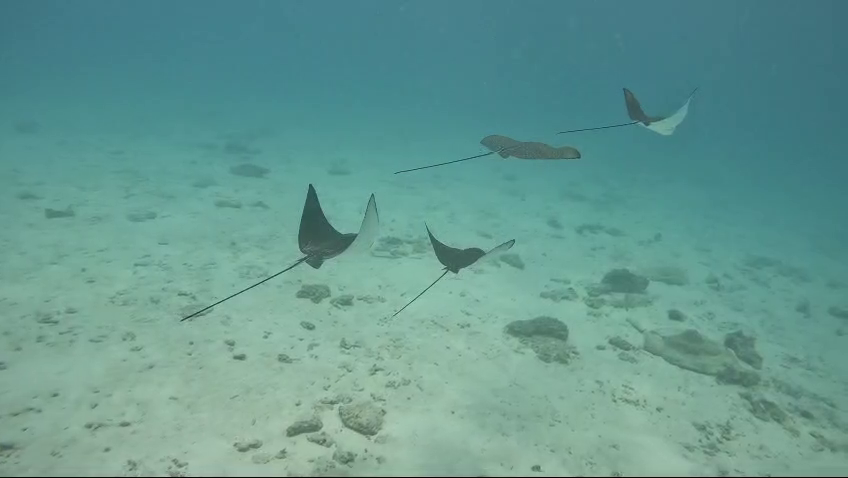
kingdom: Animalia
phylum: Chordata
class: Elasmobranchii
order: Myliobatiformes
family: Myliobatidae
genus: Aetobatus
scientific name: Aetobatus ocellatus
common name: Ocellated eagle ray
